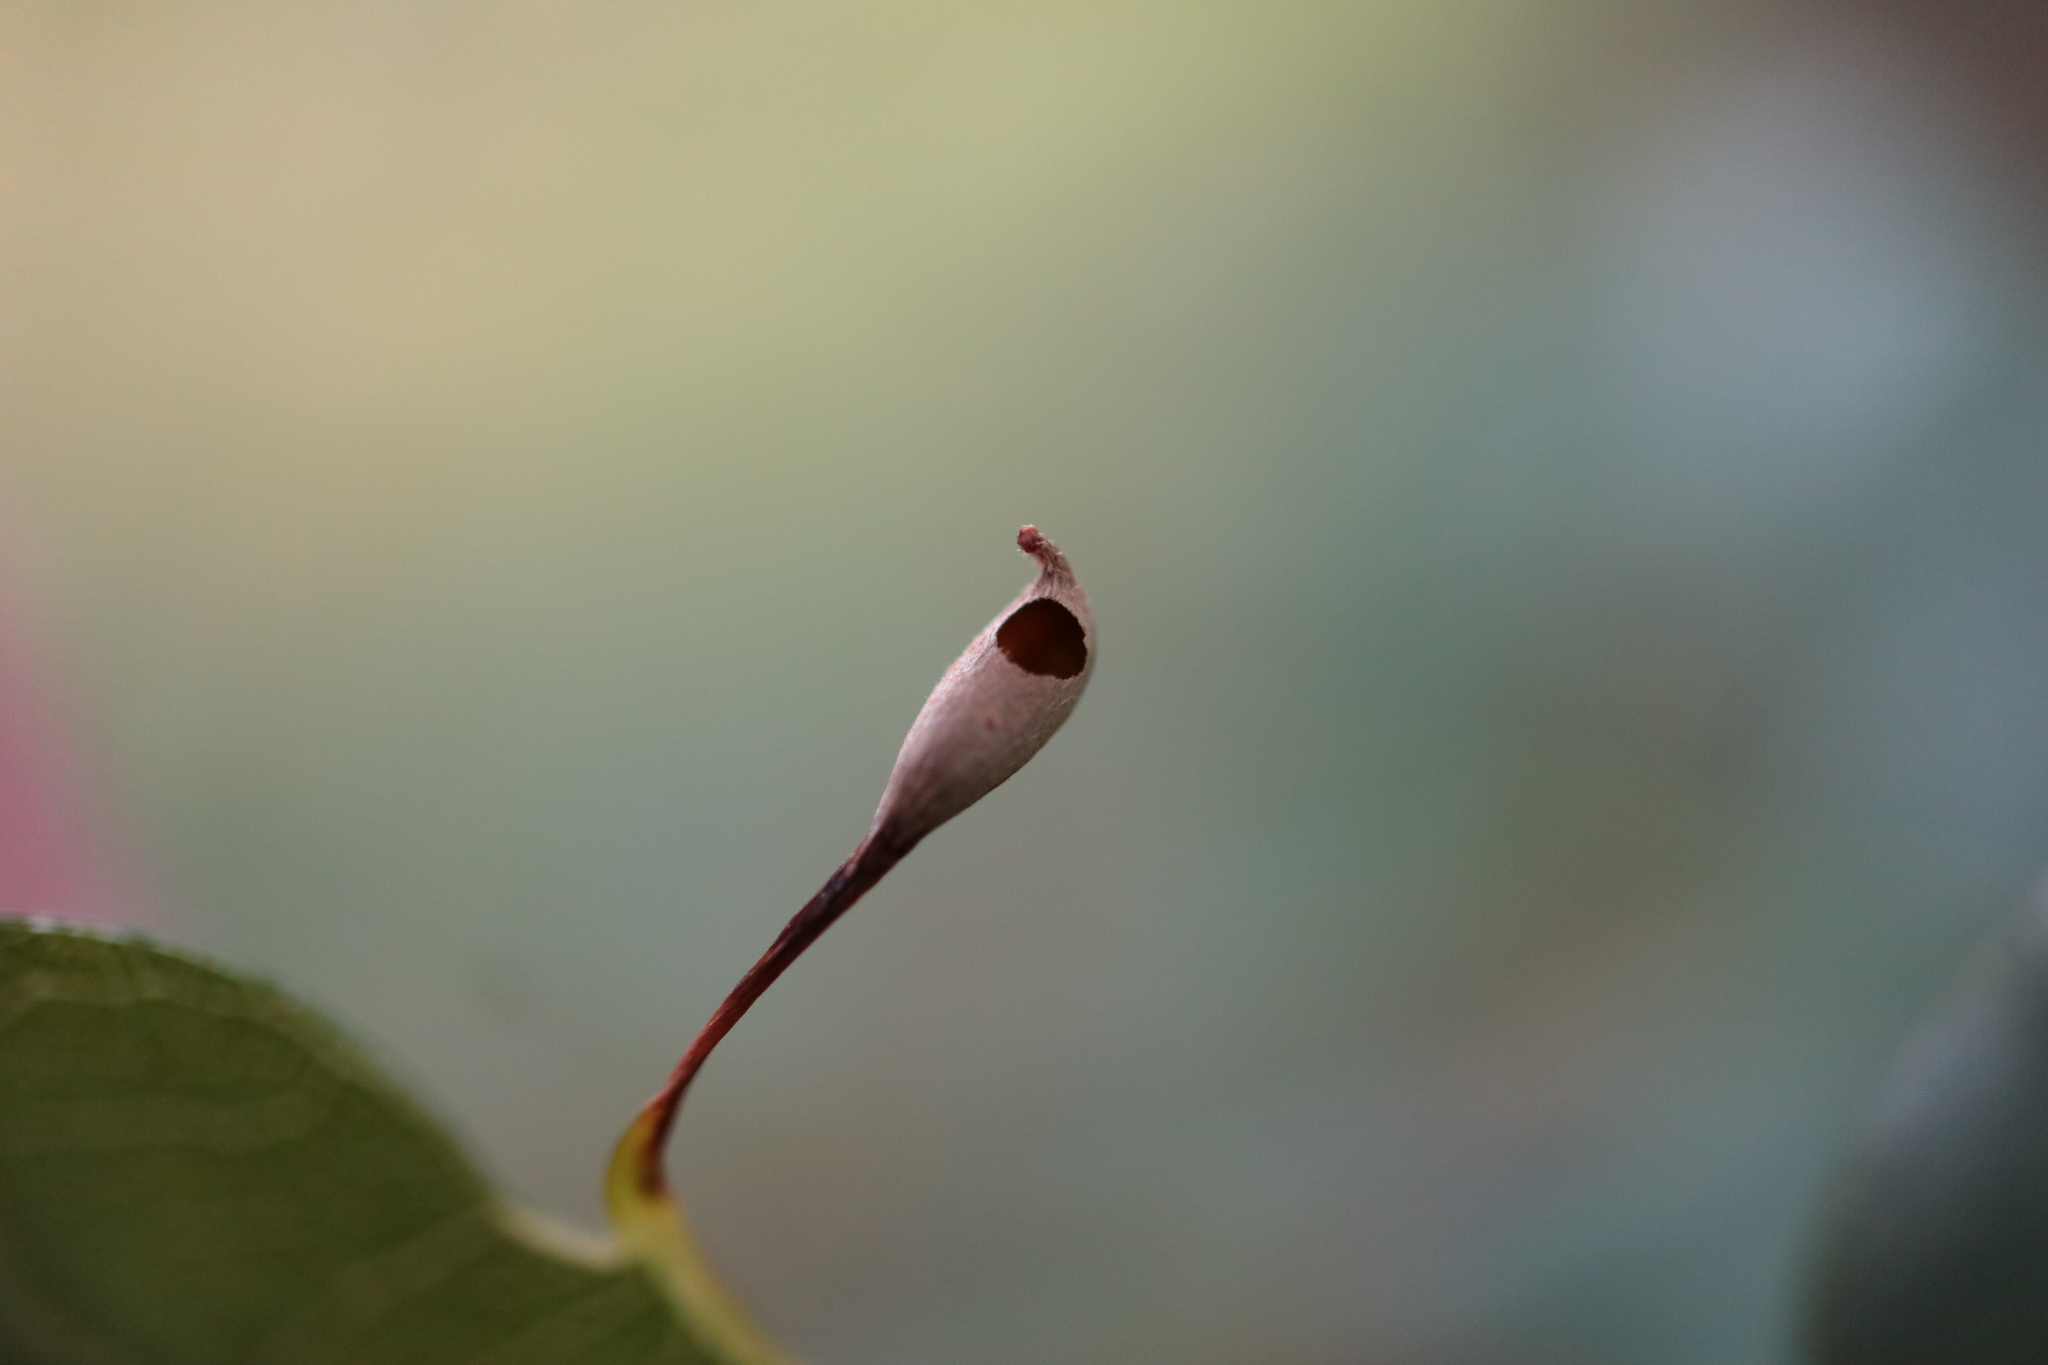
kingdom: Animalia
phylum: Arthropoda
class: Insecta
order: Hymenoptera
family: Cynipidae
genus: Andricus
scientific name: Andricus
